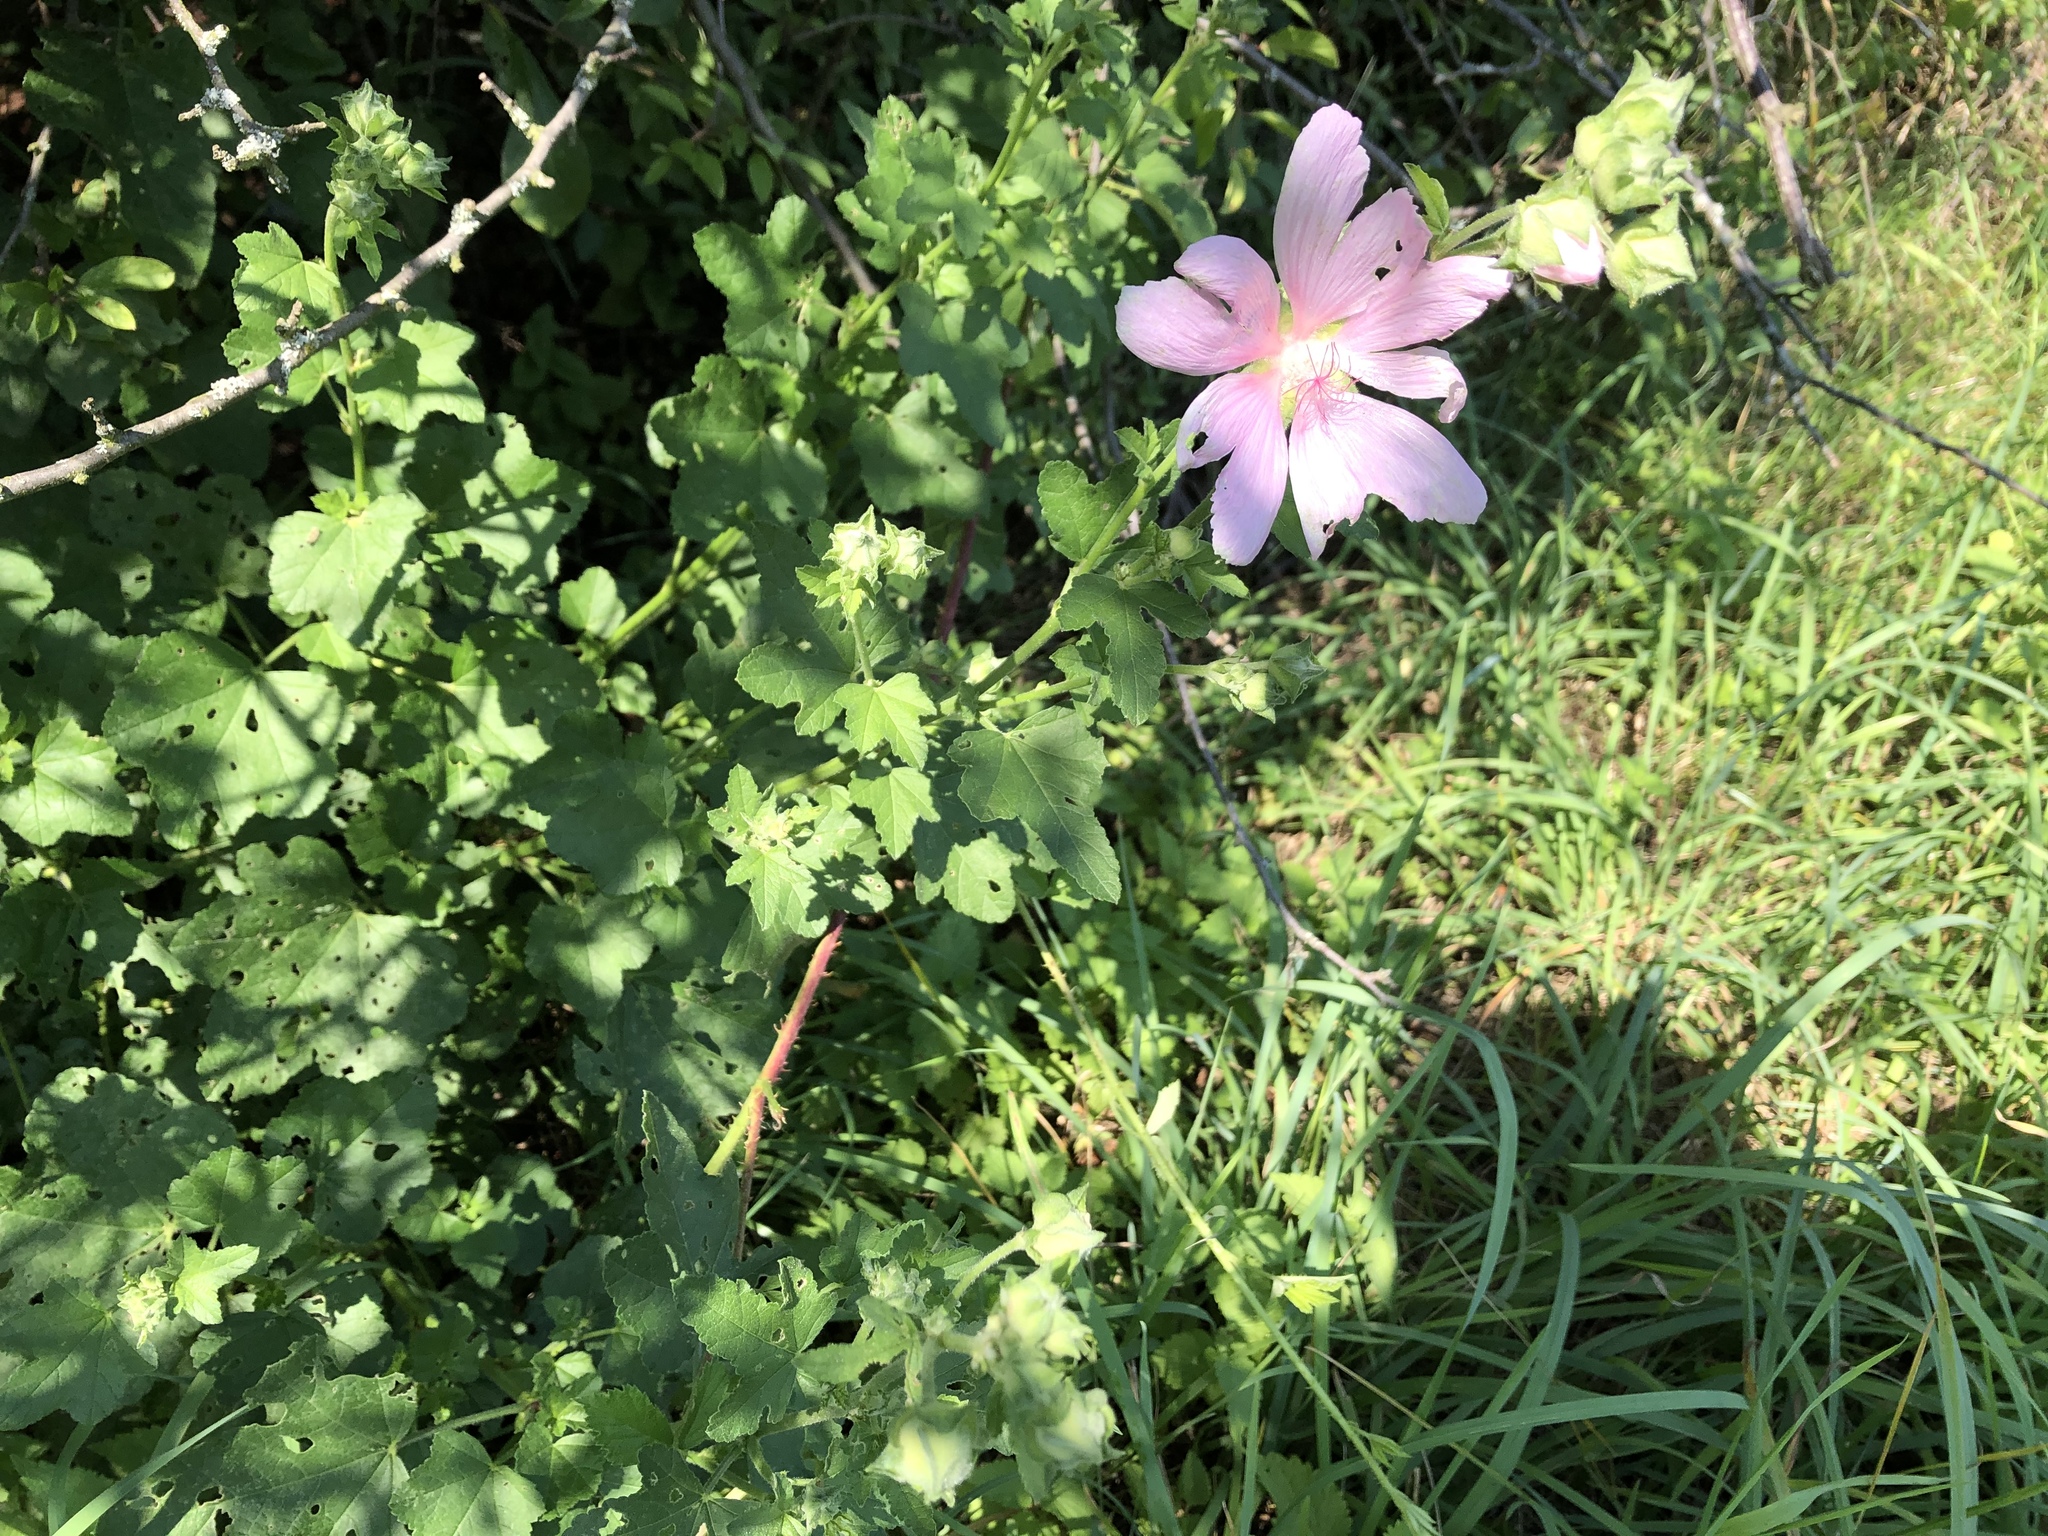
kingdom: Plantae
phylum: Tracheophyta
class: Magnoliopsida
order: Malvales
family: Malvaceae
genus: Malva
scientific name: Malva thuringiaca
